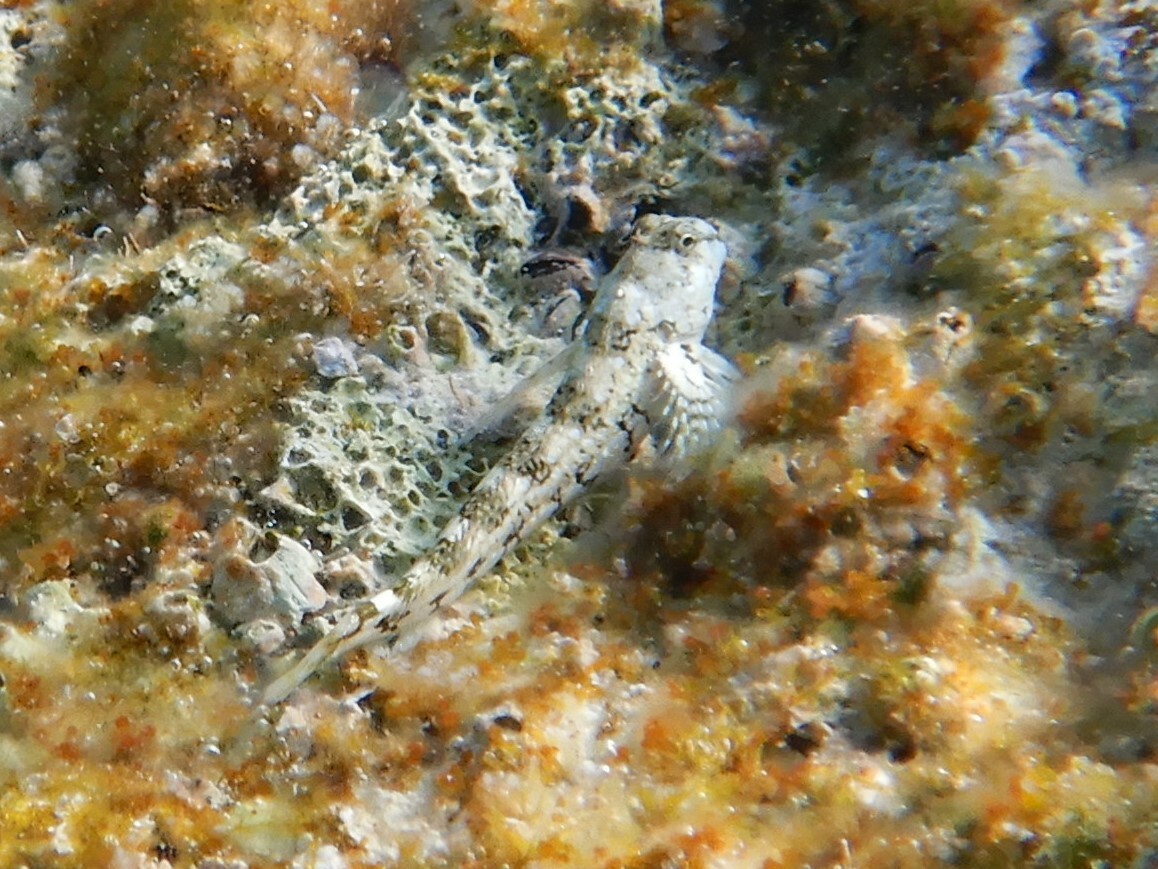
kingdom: Animalia
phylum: Chordata
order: Perciformes
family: Blenniidae
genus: Coryphoblennius
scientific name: Coryphoblennius galerita
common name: Montagu's blenny
